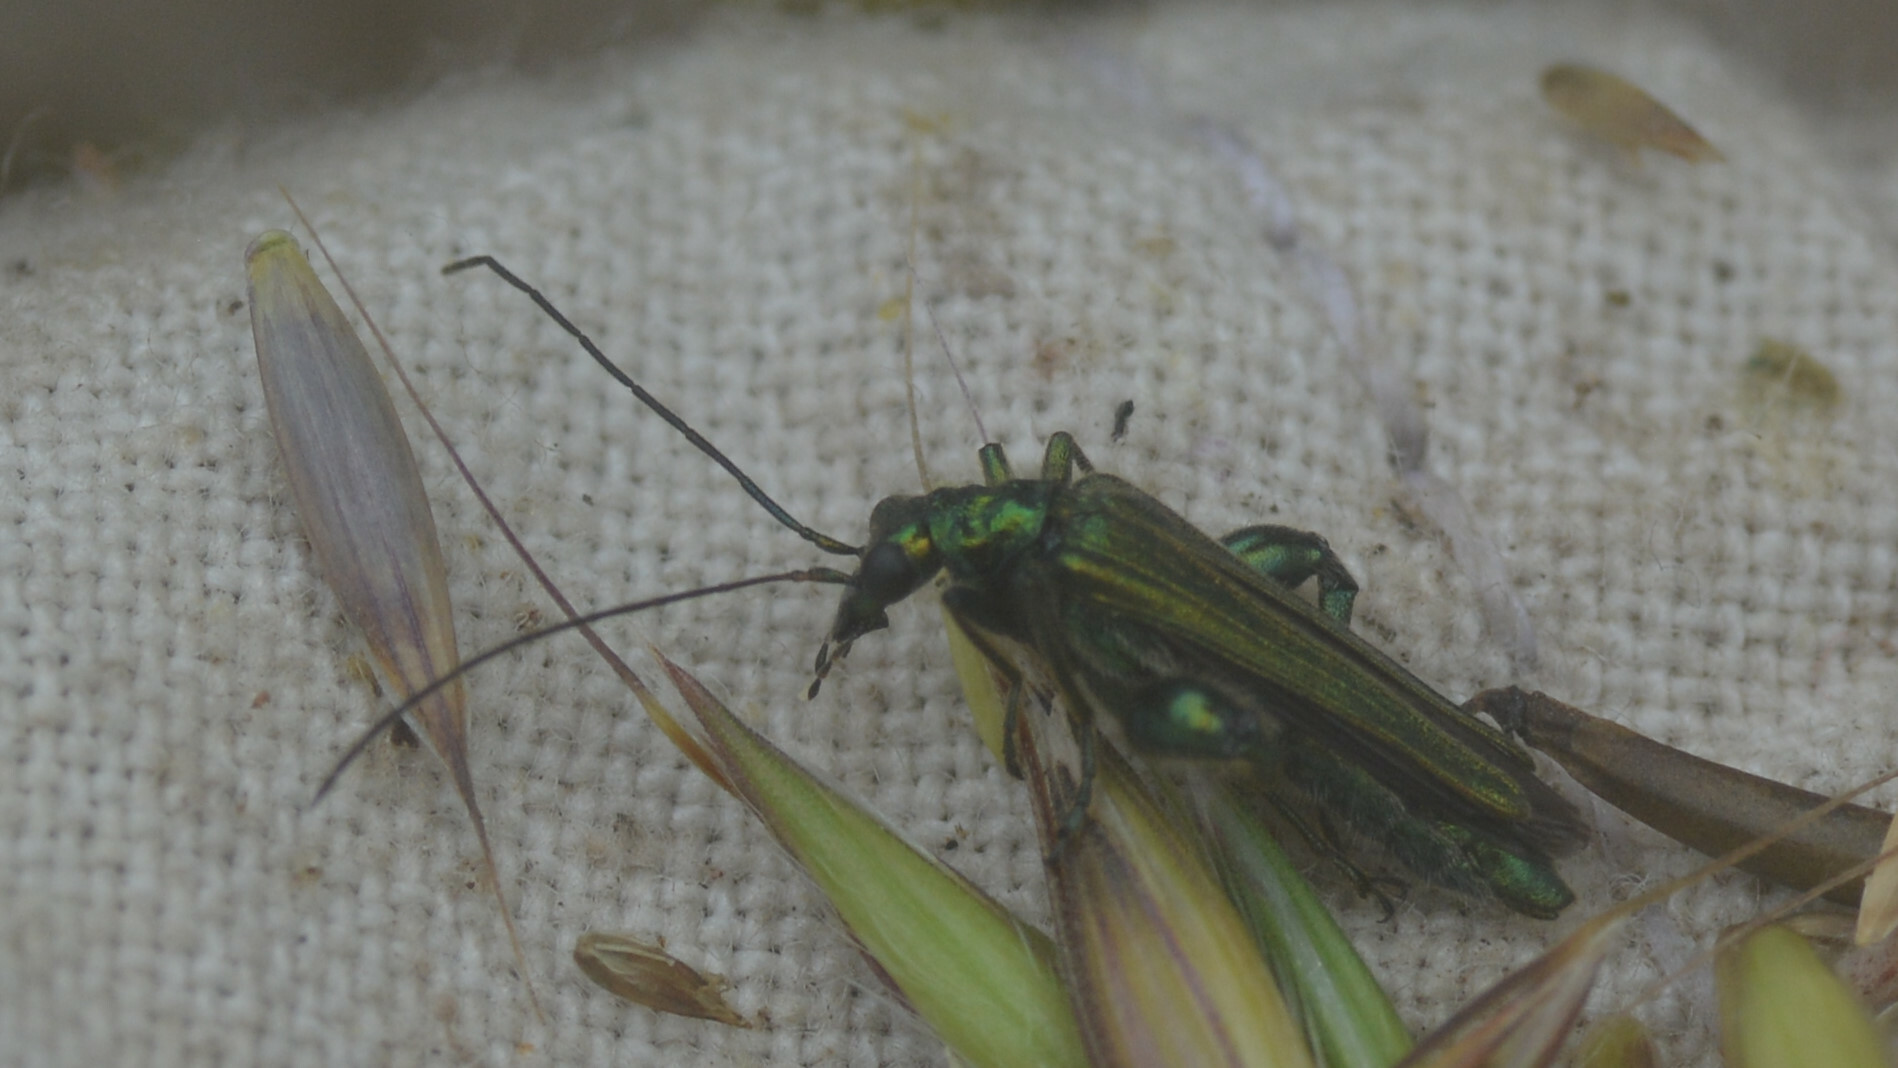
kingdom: Animalia
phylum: Arthropoda
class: Insecta
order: Coleoptera
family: Oedemeridae
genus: Oedemera
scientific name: Oedemera nobilis
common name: Swollen-thighed beetle
